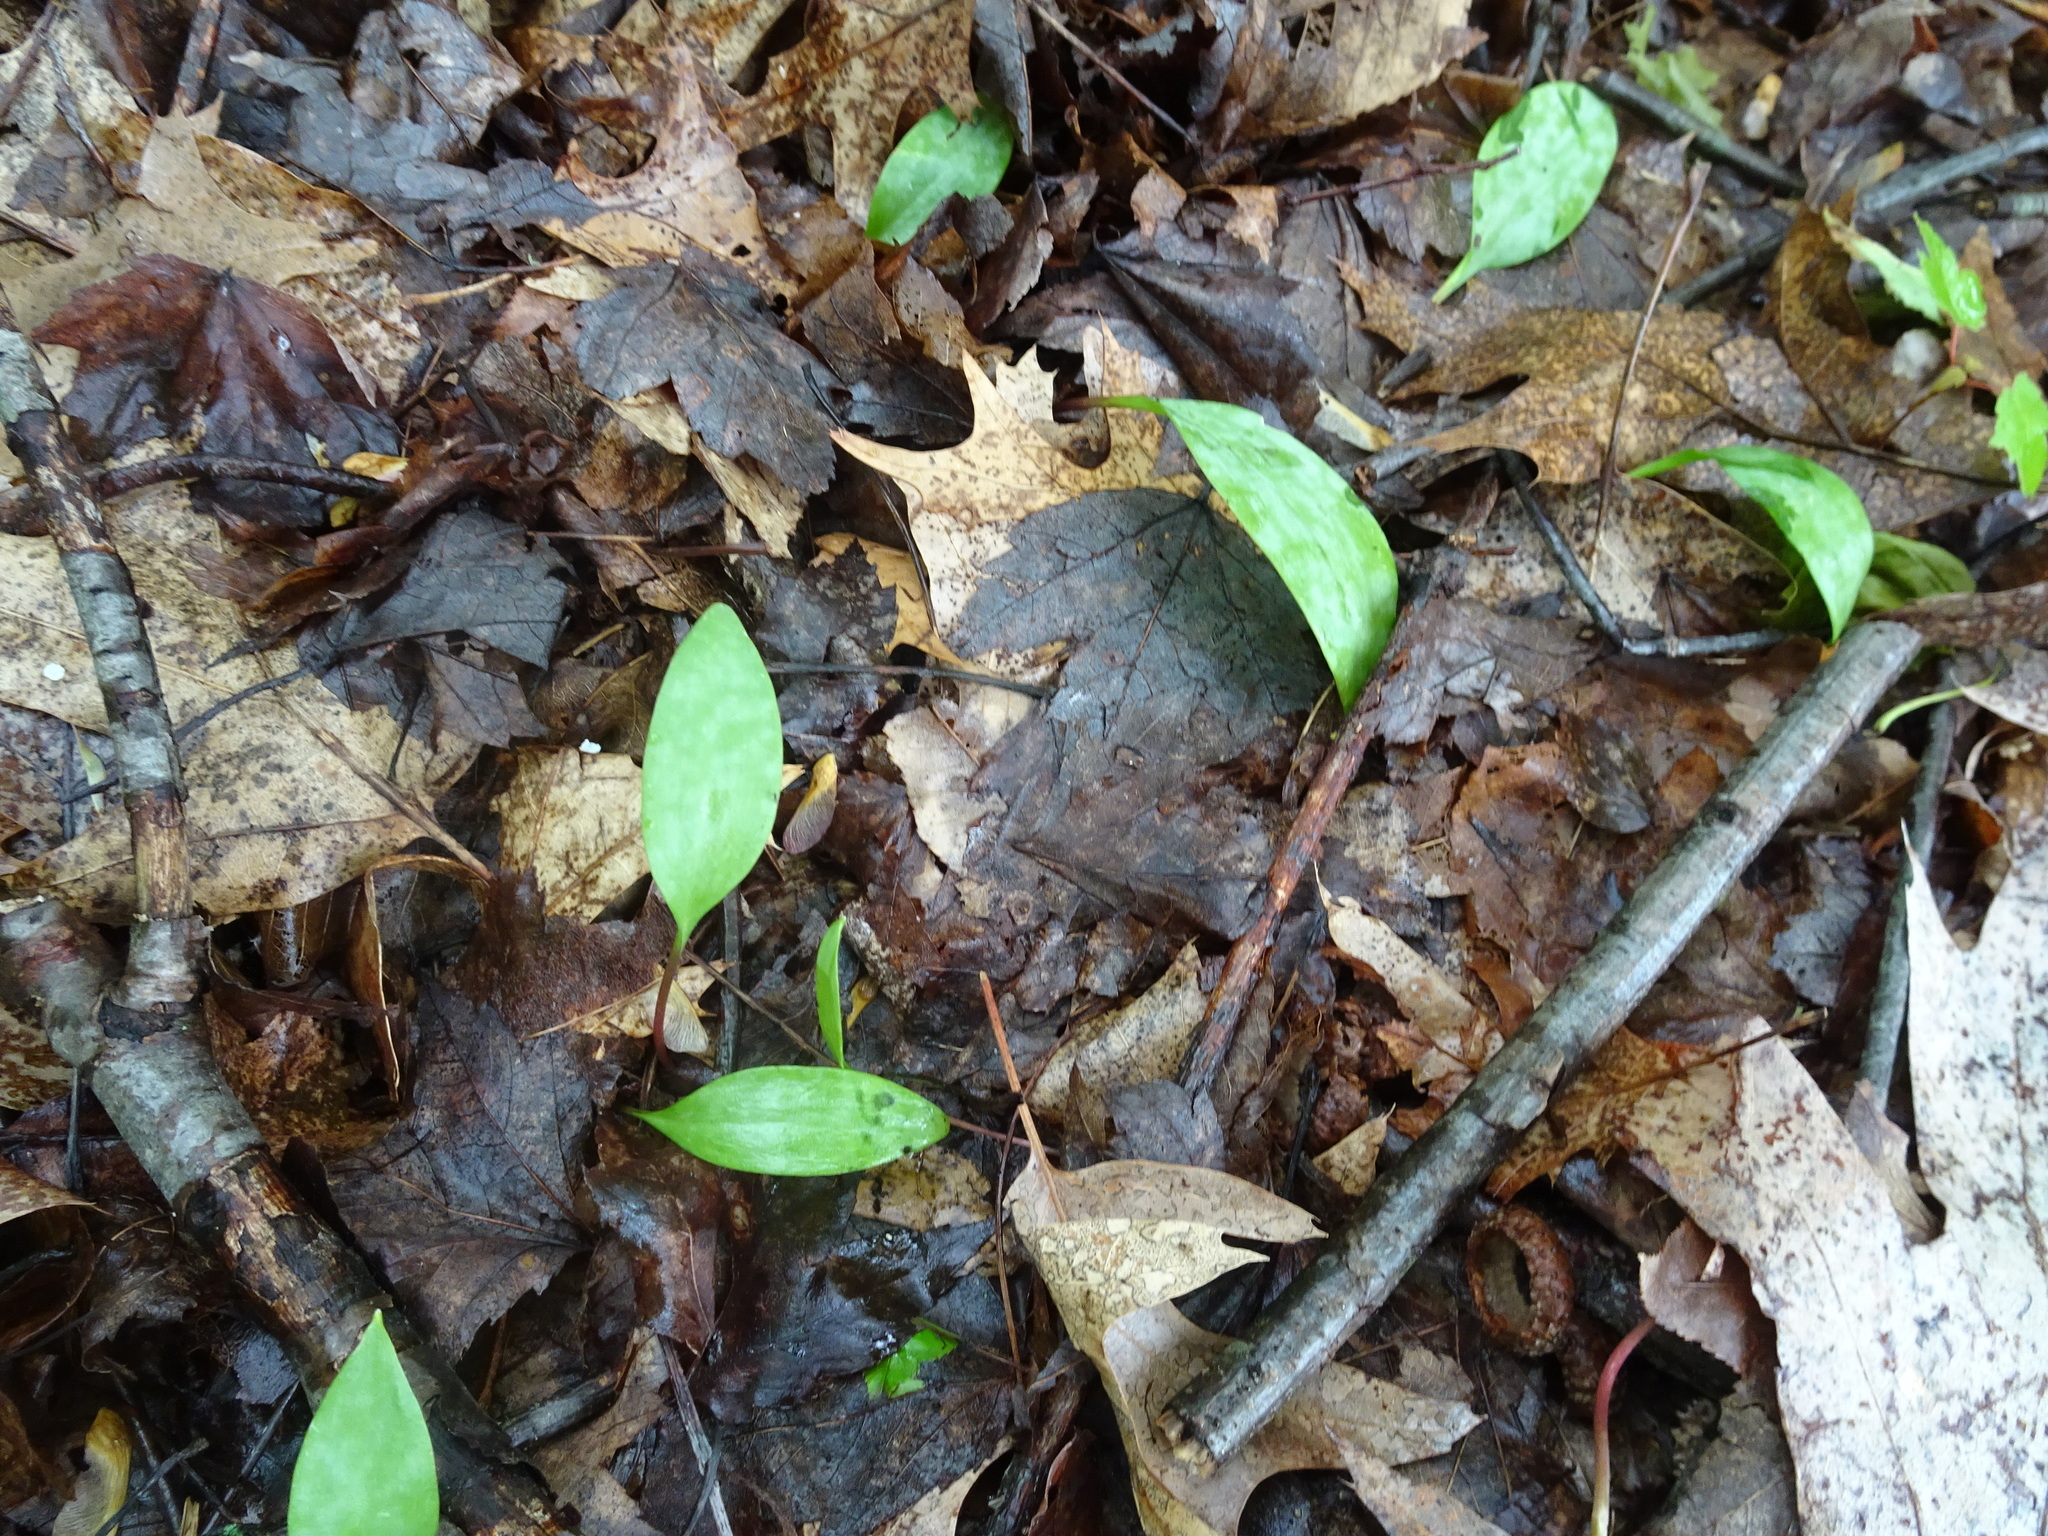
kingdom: Plantae
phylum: Tracheophyta
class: Liliopsida
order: Liliales
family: Liliaceae
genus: Erythronium
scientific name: Erythronium americanum
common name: Yellow adder's-tongue
